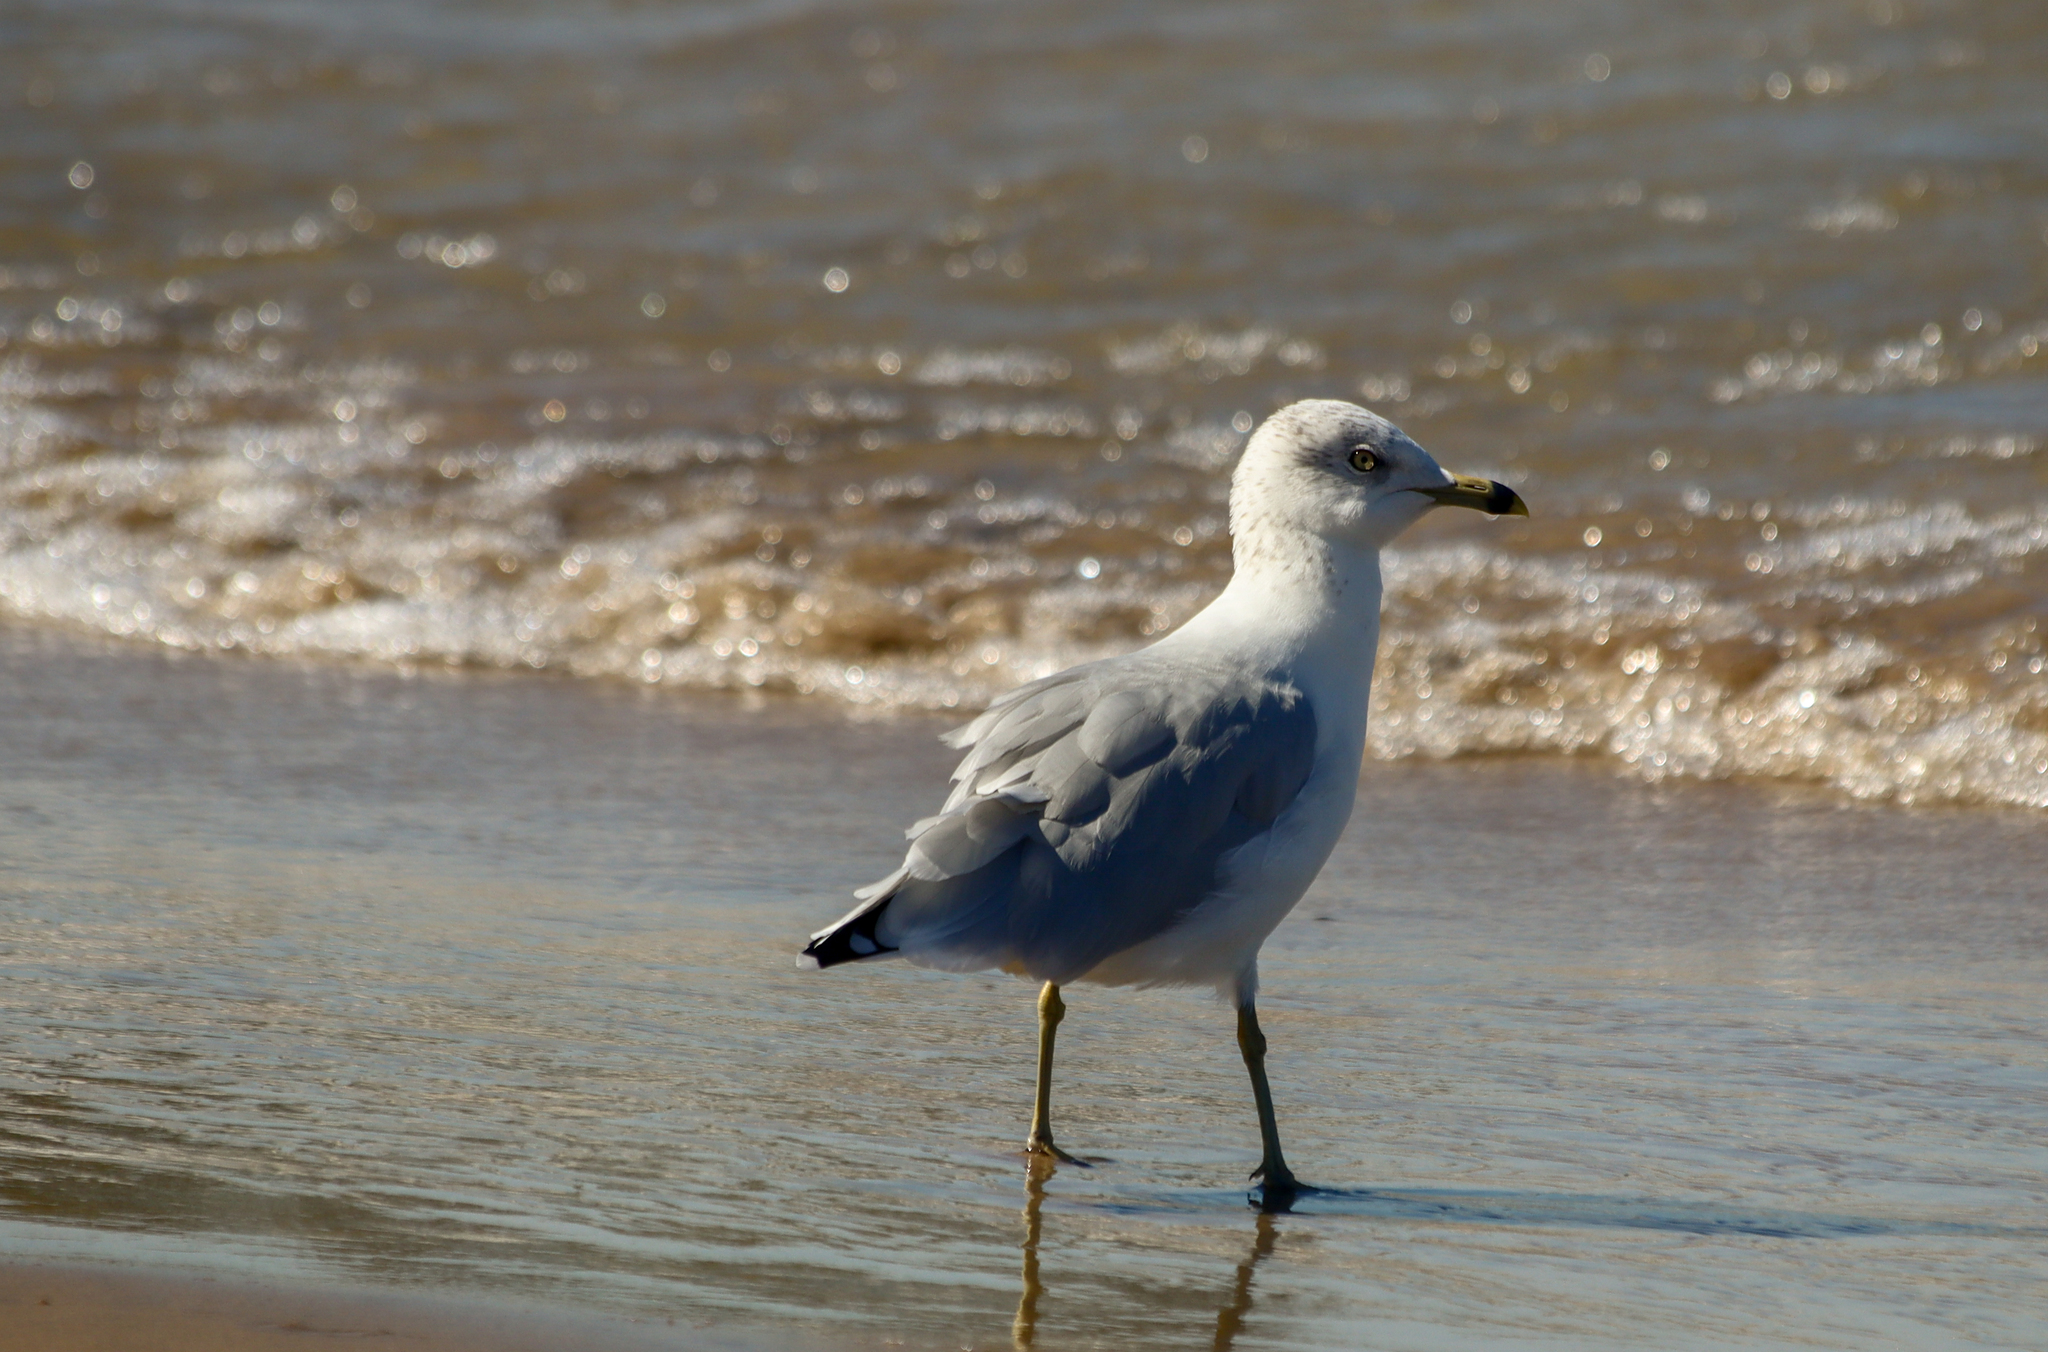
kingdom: Animalia
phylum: Chordata
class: Aves
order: Charadriiformes
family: Laridae
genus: Larus
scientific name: Larus delawarensis
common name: Ring-billed gull
